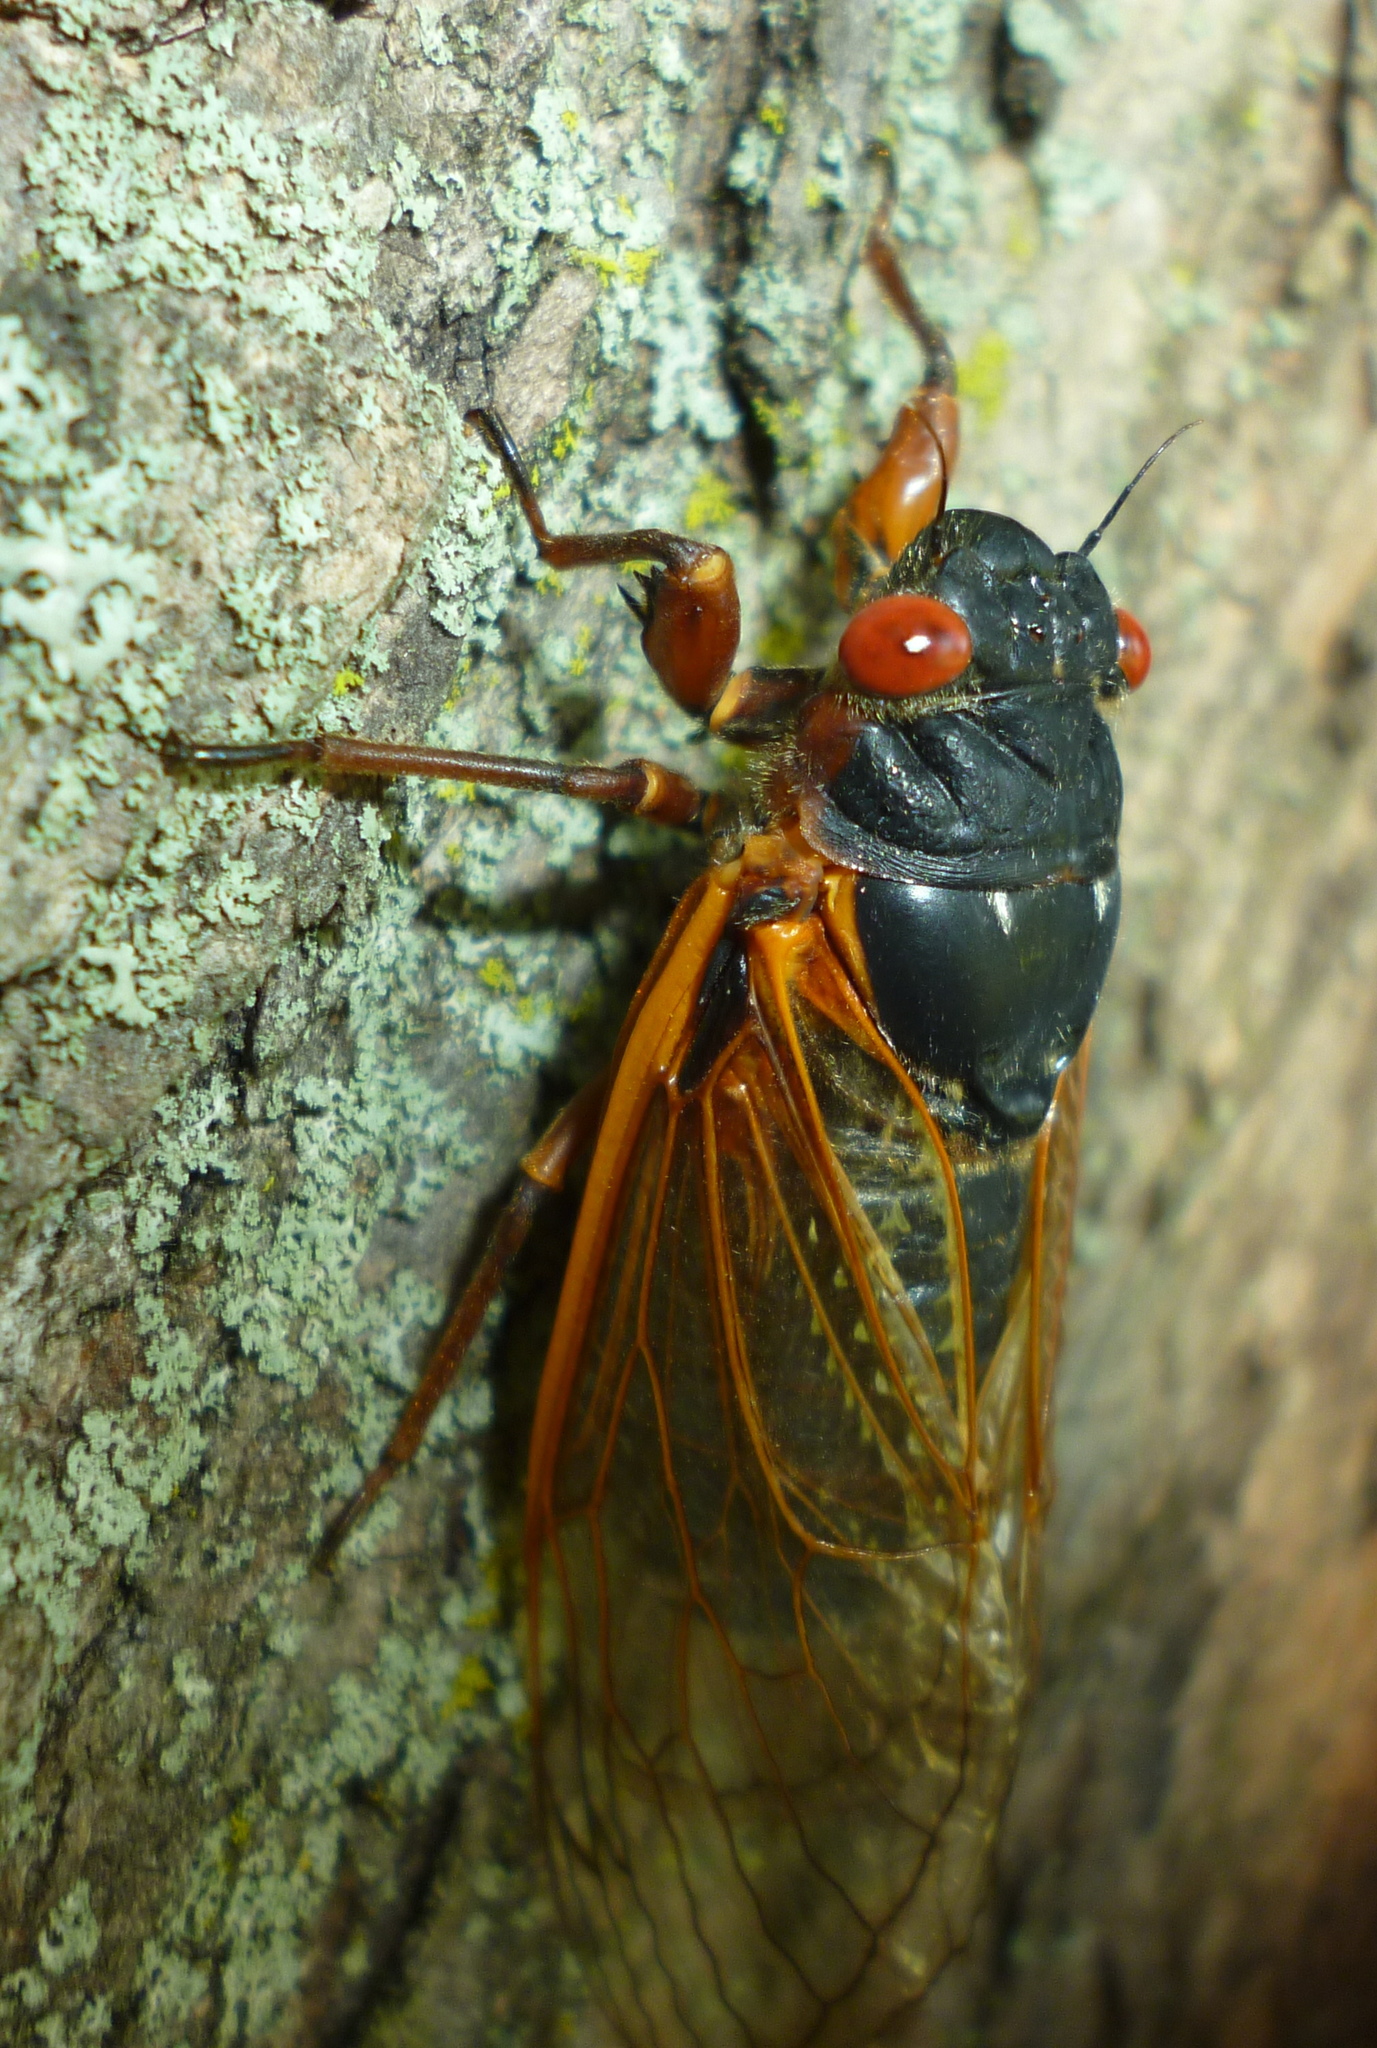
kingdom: Animalia
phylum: Arthropoda
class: Insecta
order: Hemiptera
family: Cicadidae
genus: Magicicada
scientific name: Magicicada septendecim
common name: Periodical cicada
